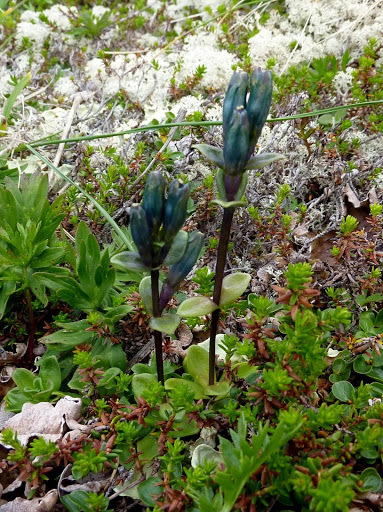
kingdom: Plantae
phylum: Tracheophyta
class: Magnoliopsida
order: Gentianales
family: Gentianaceae
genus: Gentiana
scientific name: Gentiana glauca
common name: Alpine gentian
